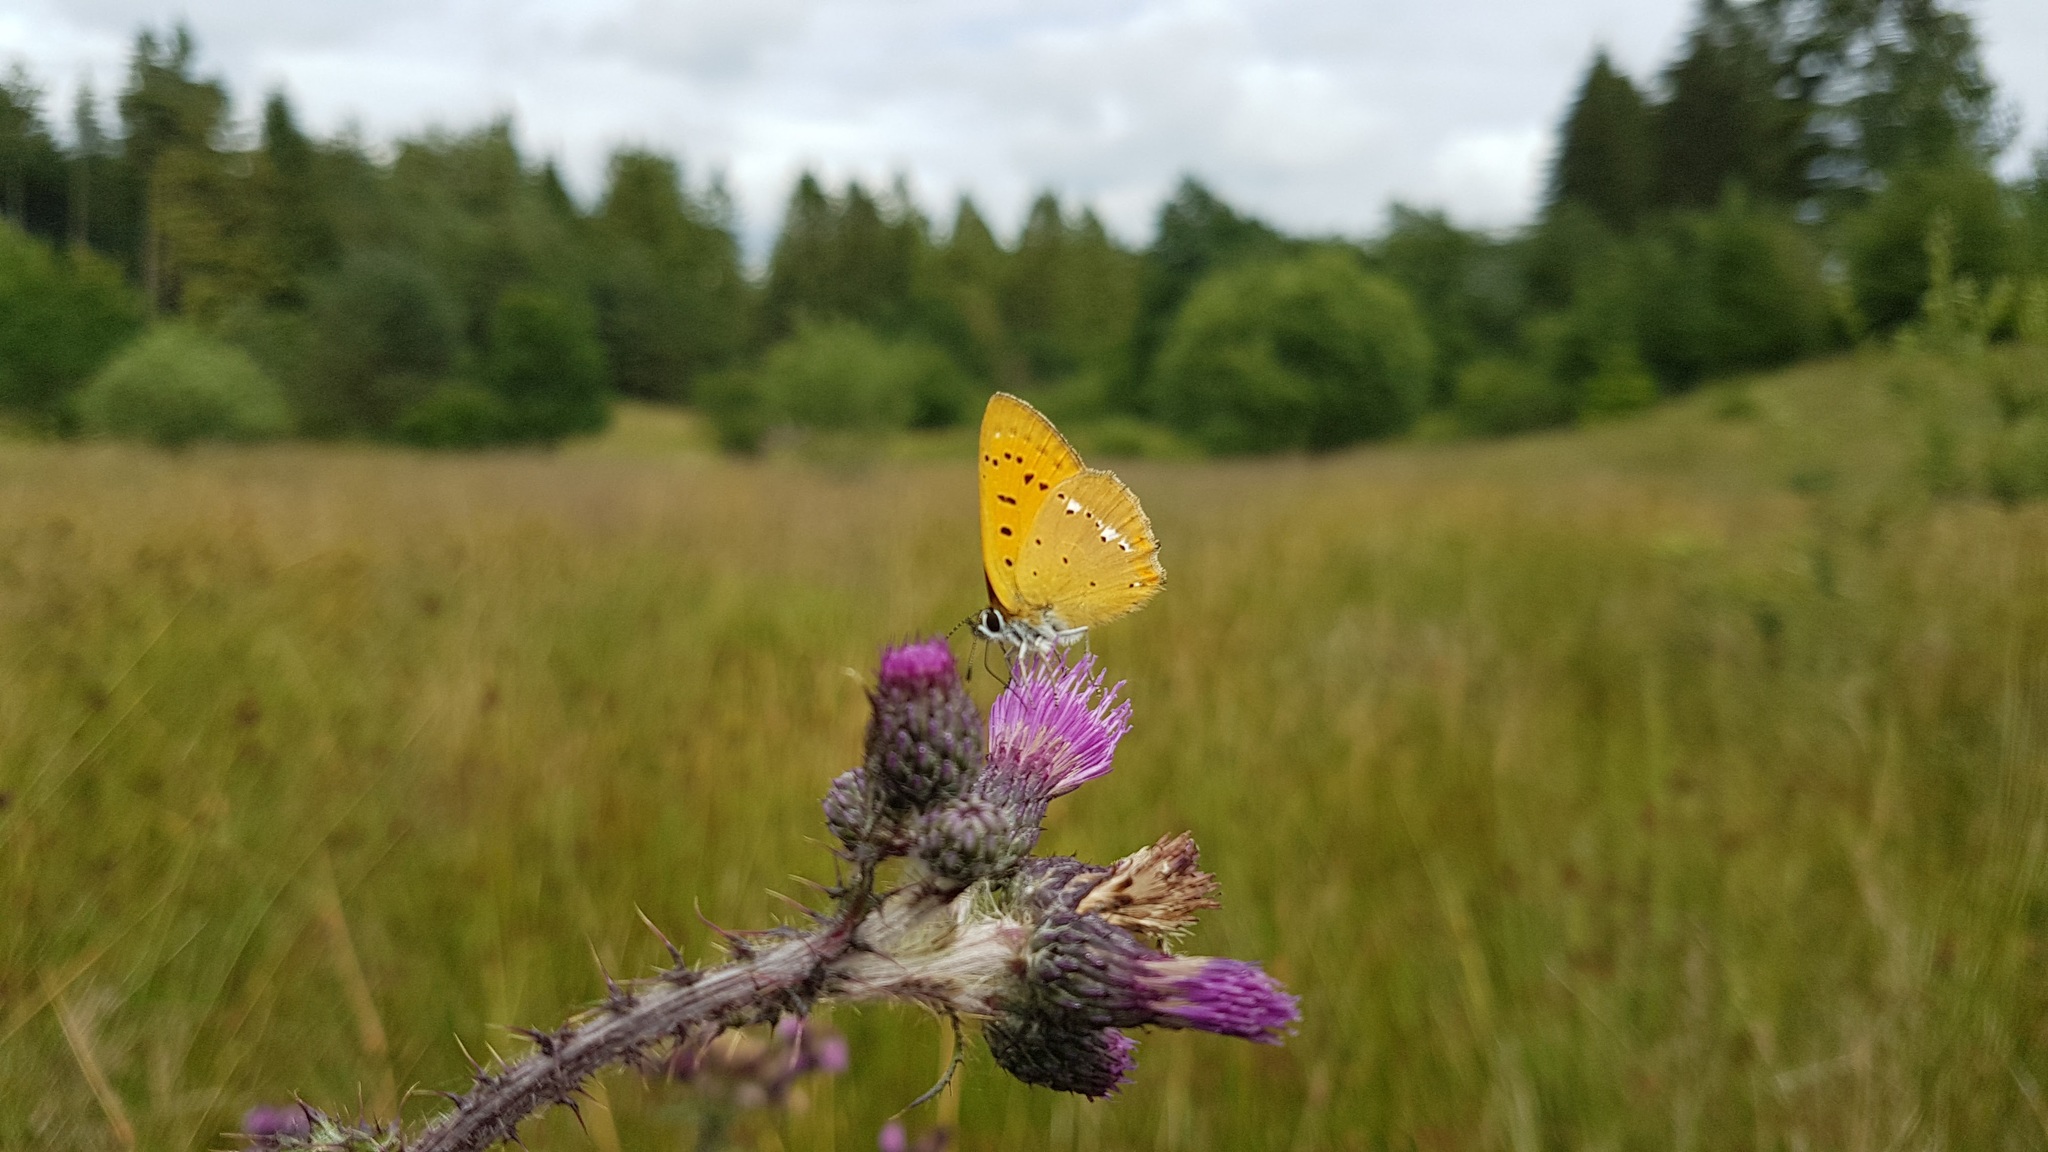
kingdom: Animalia
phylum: Arthropoda
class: Insecta
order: Lepidoptera
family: Lycaenidae
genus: Lycaena
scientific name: Lycaena virgaureae
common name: Scarce copper
